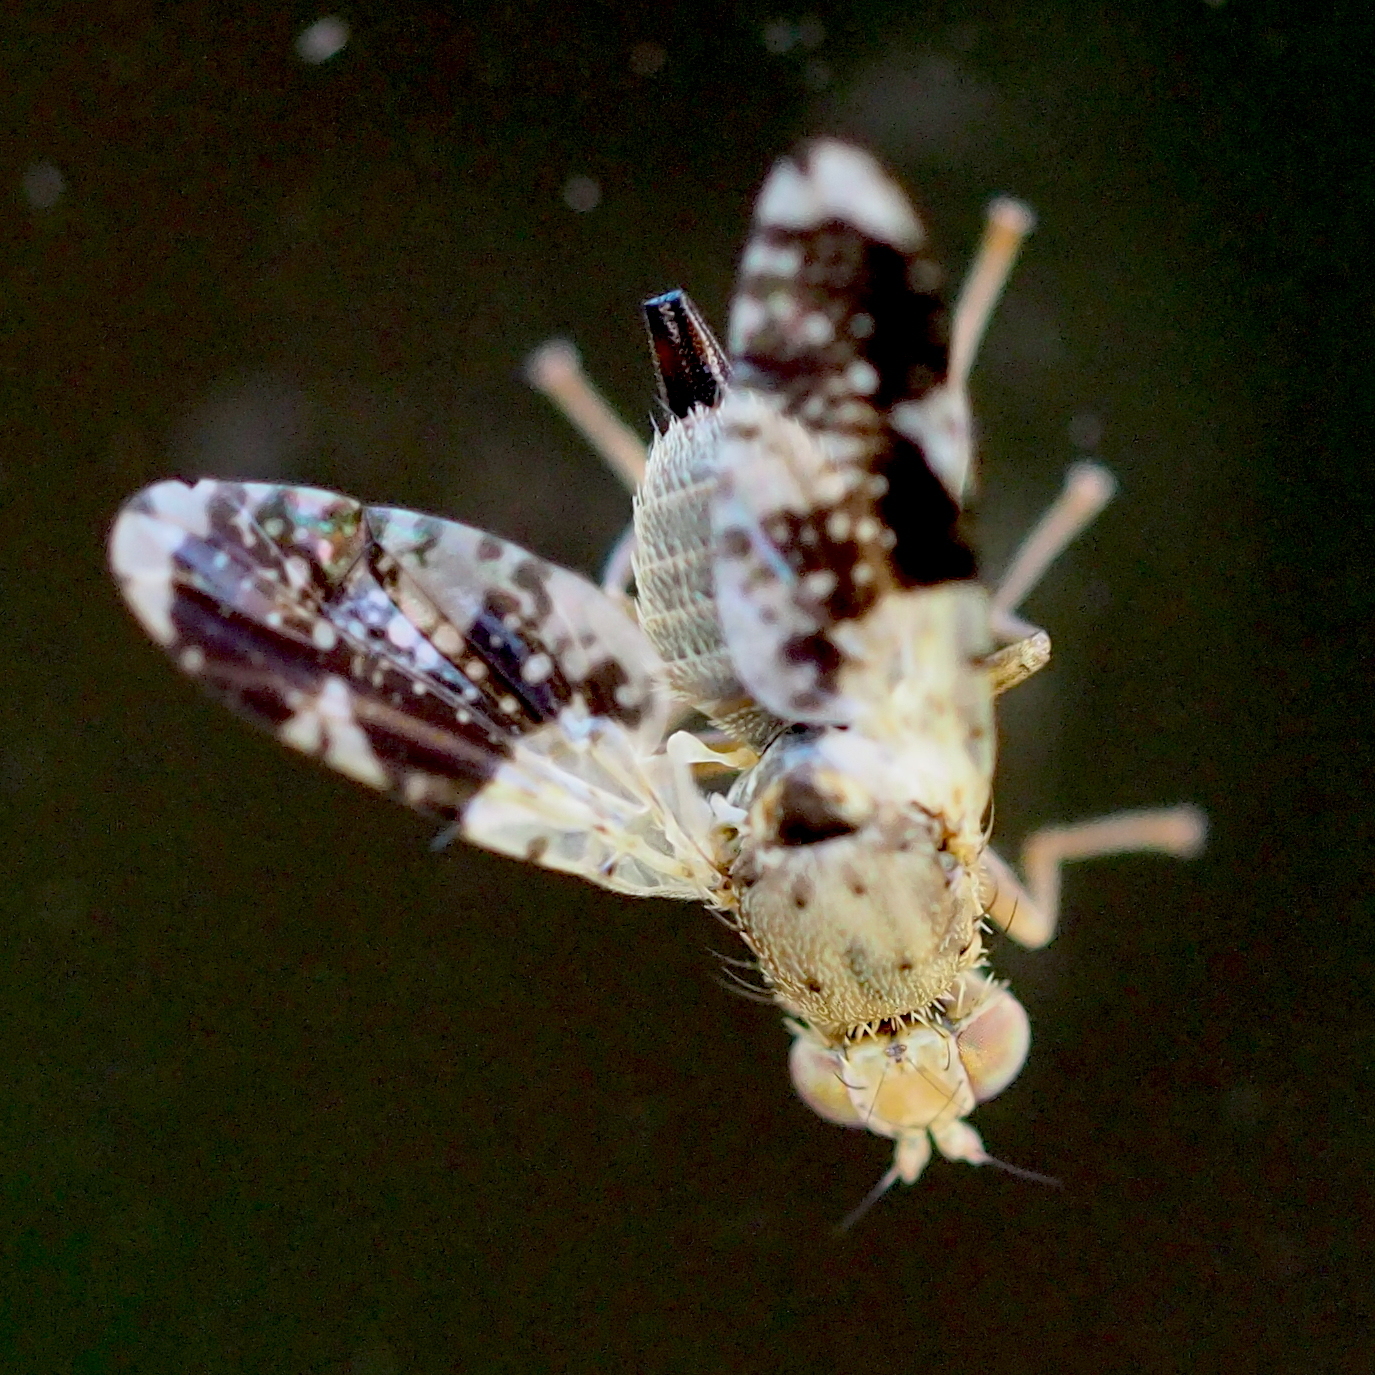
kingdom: Animalia
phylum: Arthropoda
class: Insecta
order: Diptera
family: Tephritidae
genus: Tephritis
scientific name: Tephritis formosa
